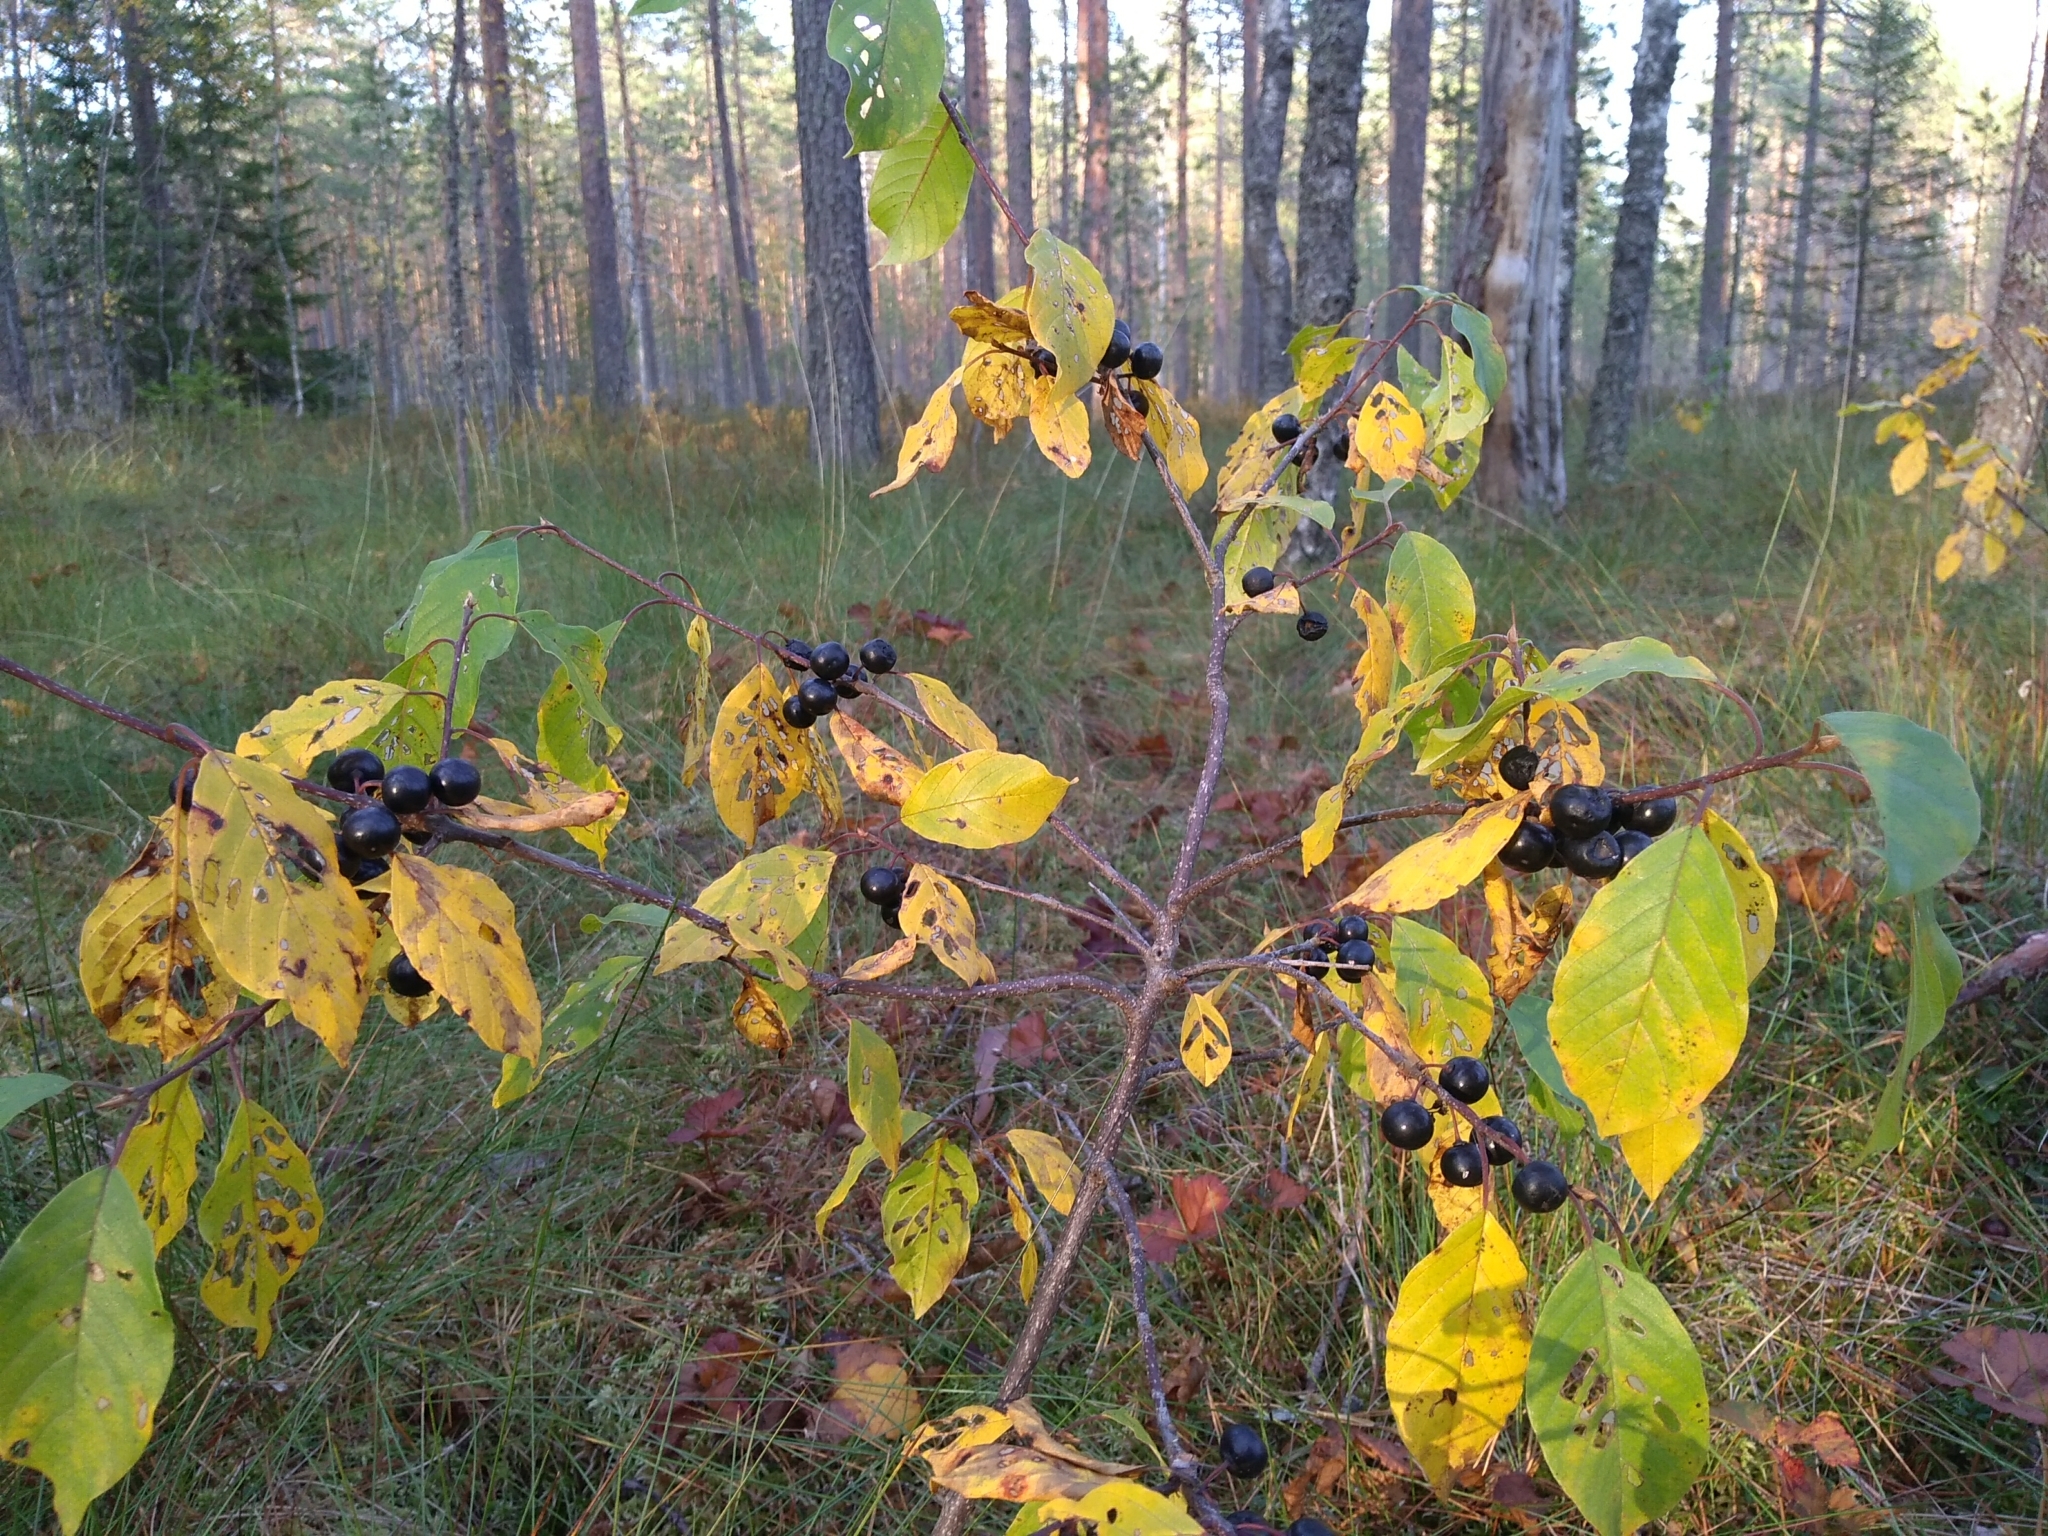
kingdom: Plantae
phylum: Tracheophyta
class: Magnoliopsida
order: Rosales
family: Rhamnaceae
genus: Frangula
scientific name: Frangula alnus
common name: Alder buckthorn
